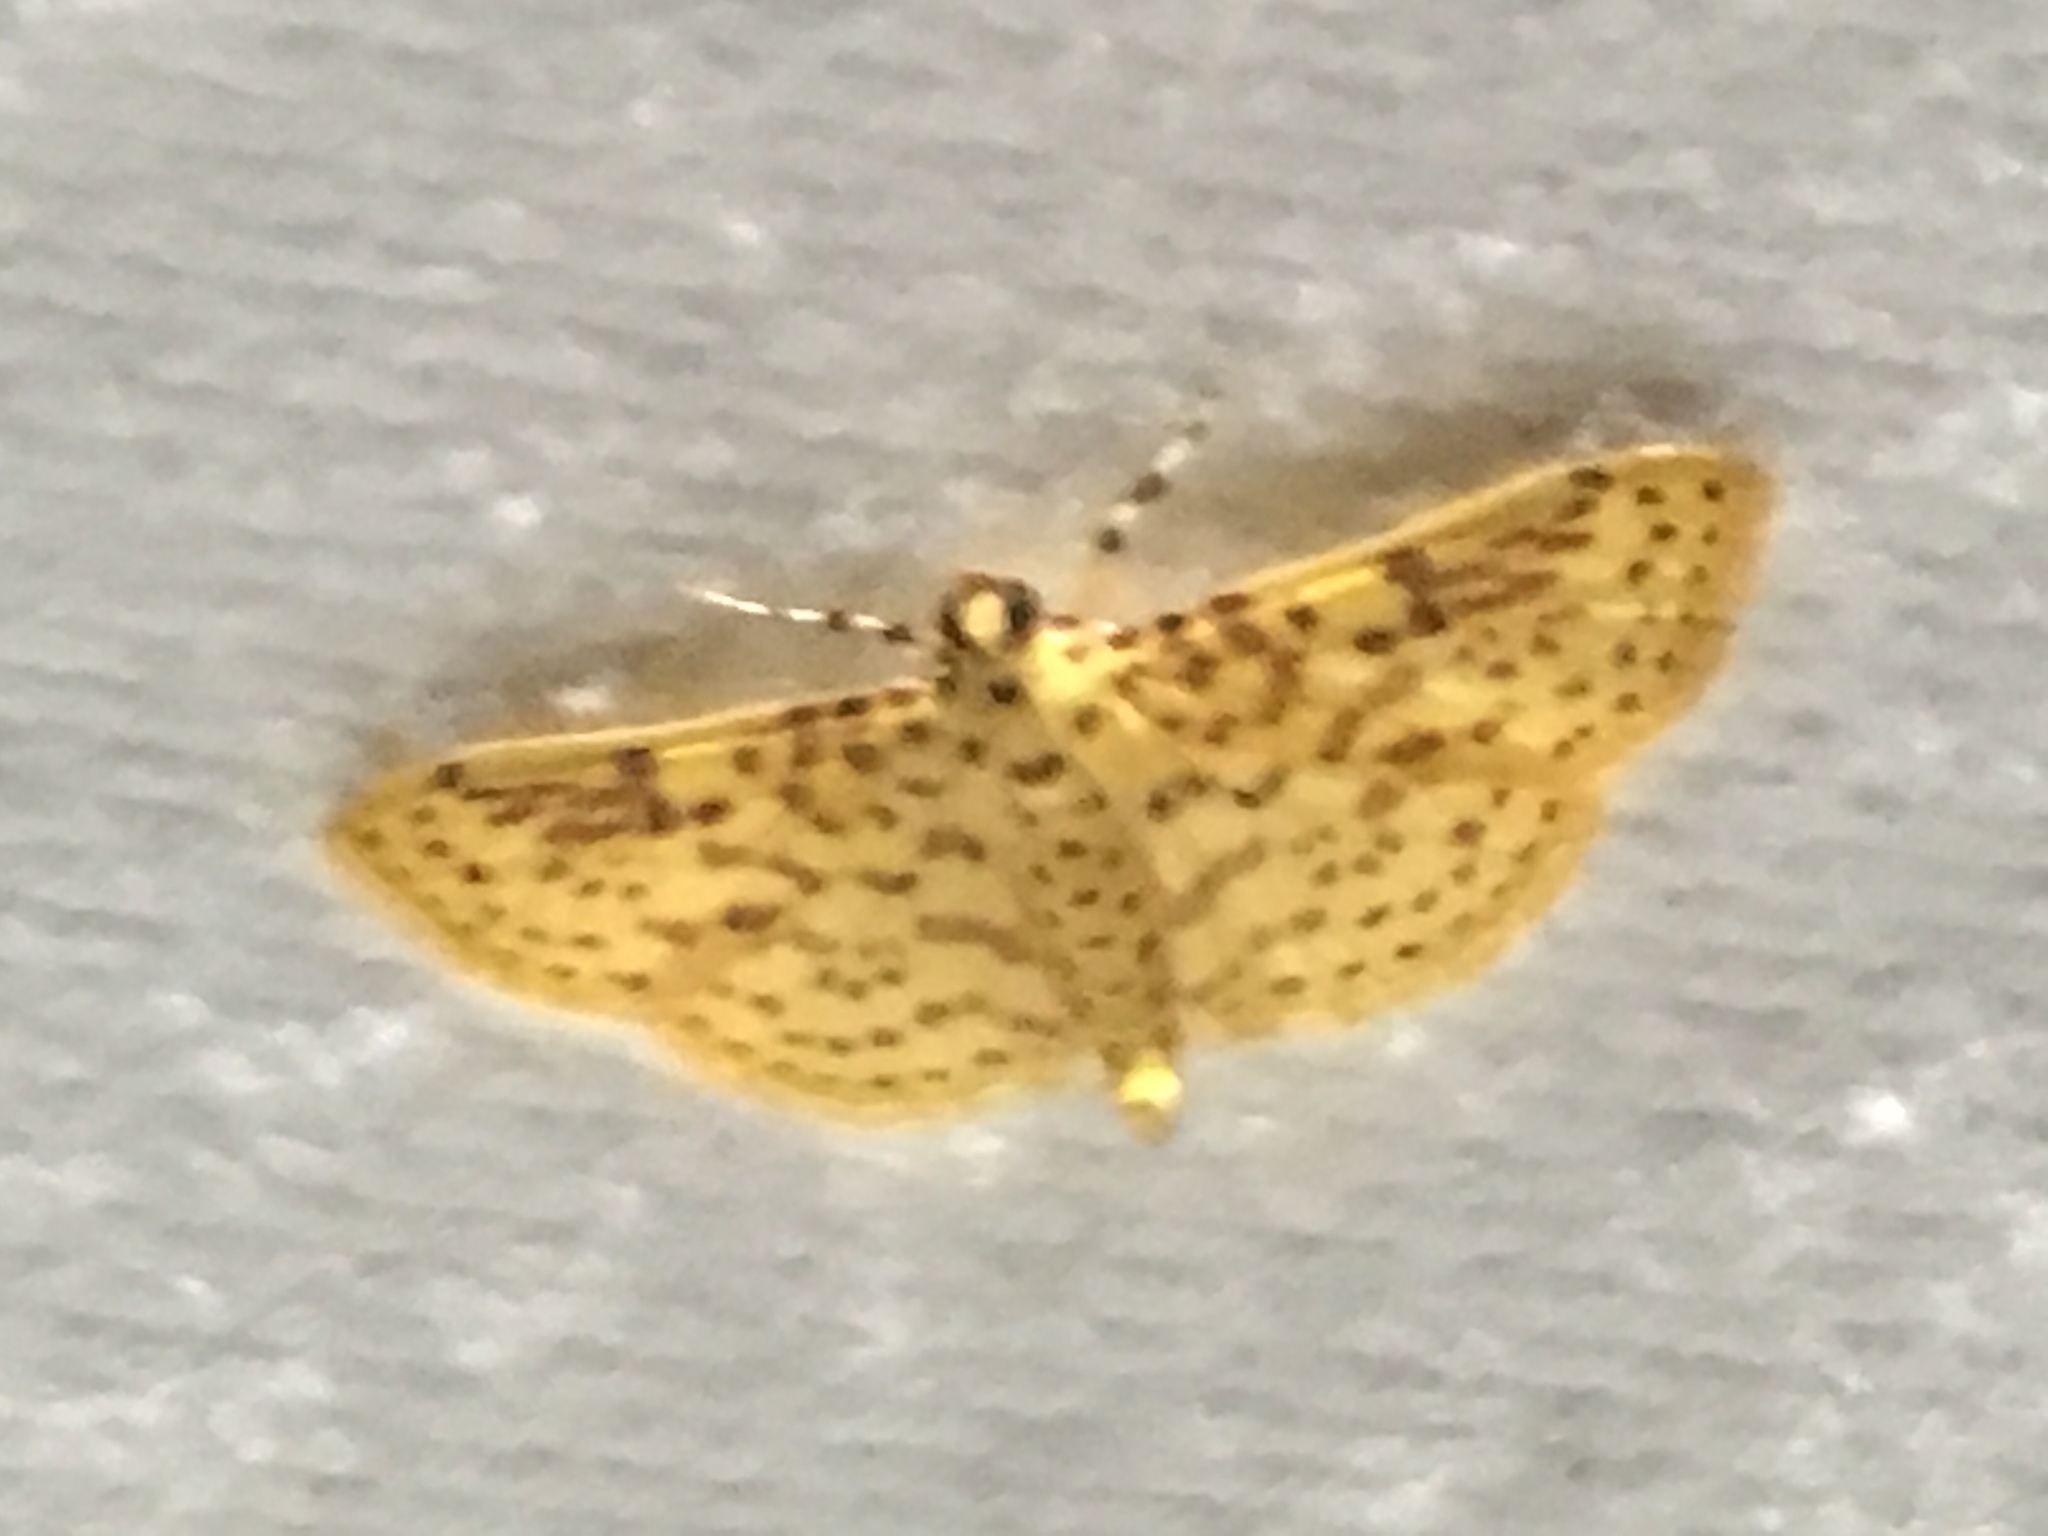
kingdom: Animalia
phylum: Arthropoda
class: Insecta
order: Lepidoptera
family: Crambidae
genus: Polygrammodes
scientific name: Polygrammodes elevata
